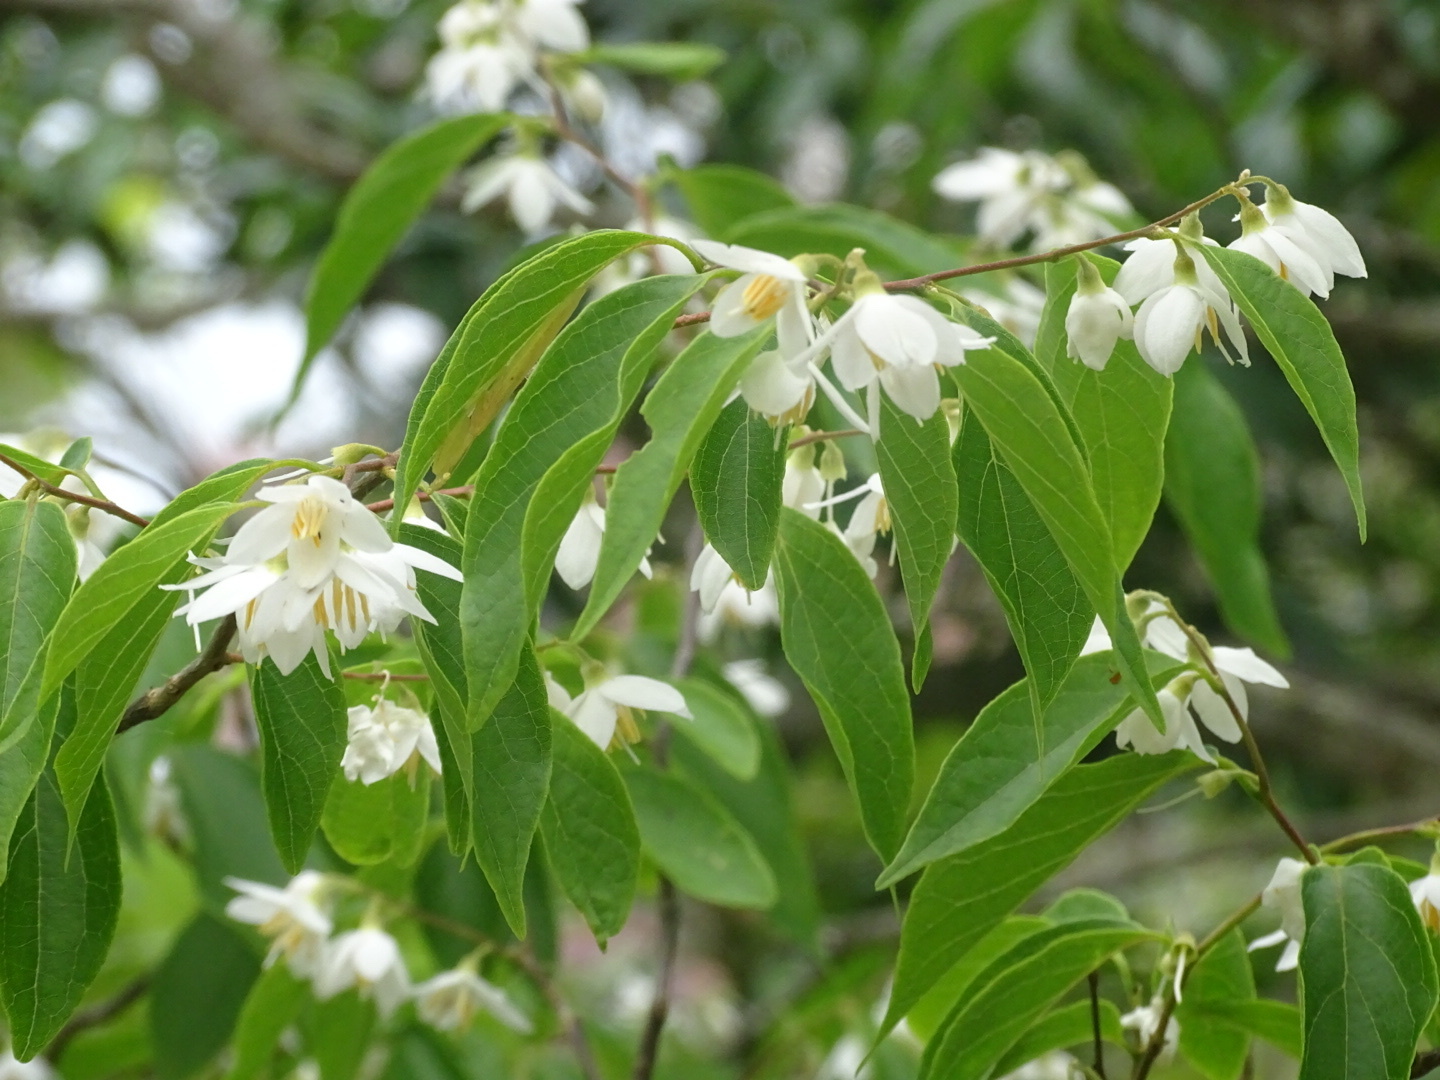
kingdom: Plantae
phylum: Tracheophyta
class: Magnoliopsida
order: Ericales
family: Styracaceae
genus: Styrax
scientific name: Styrax odoratissimus
